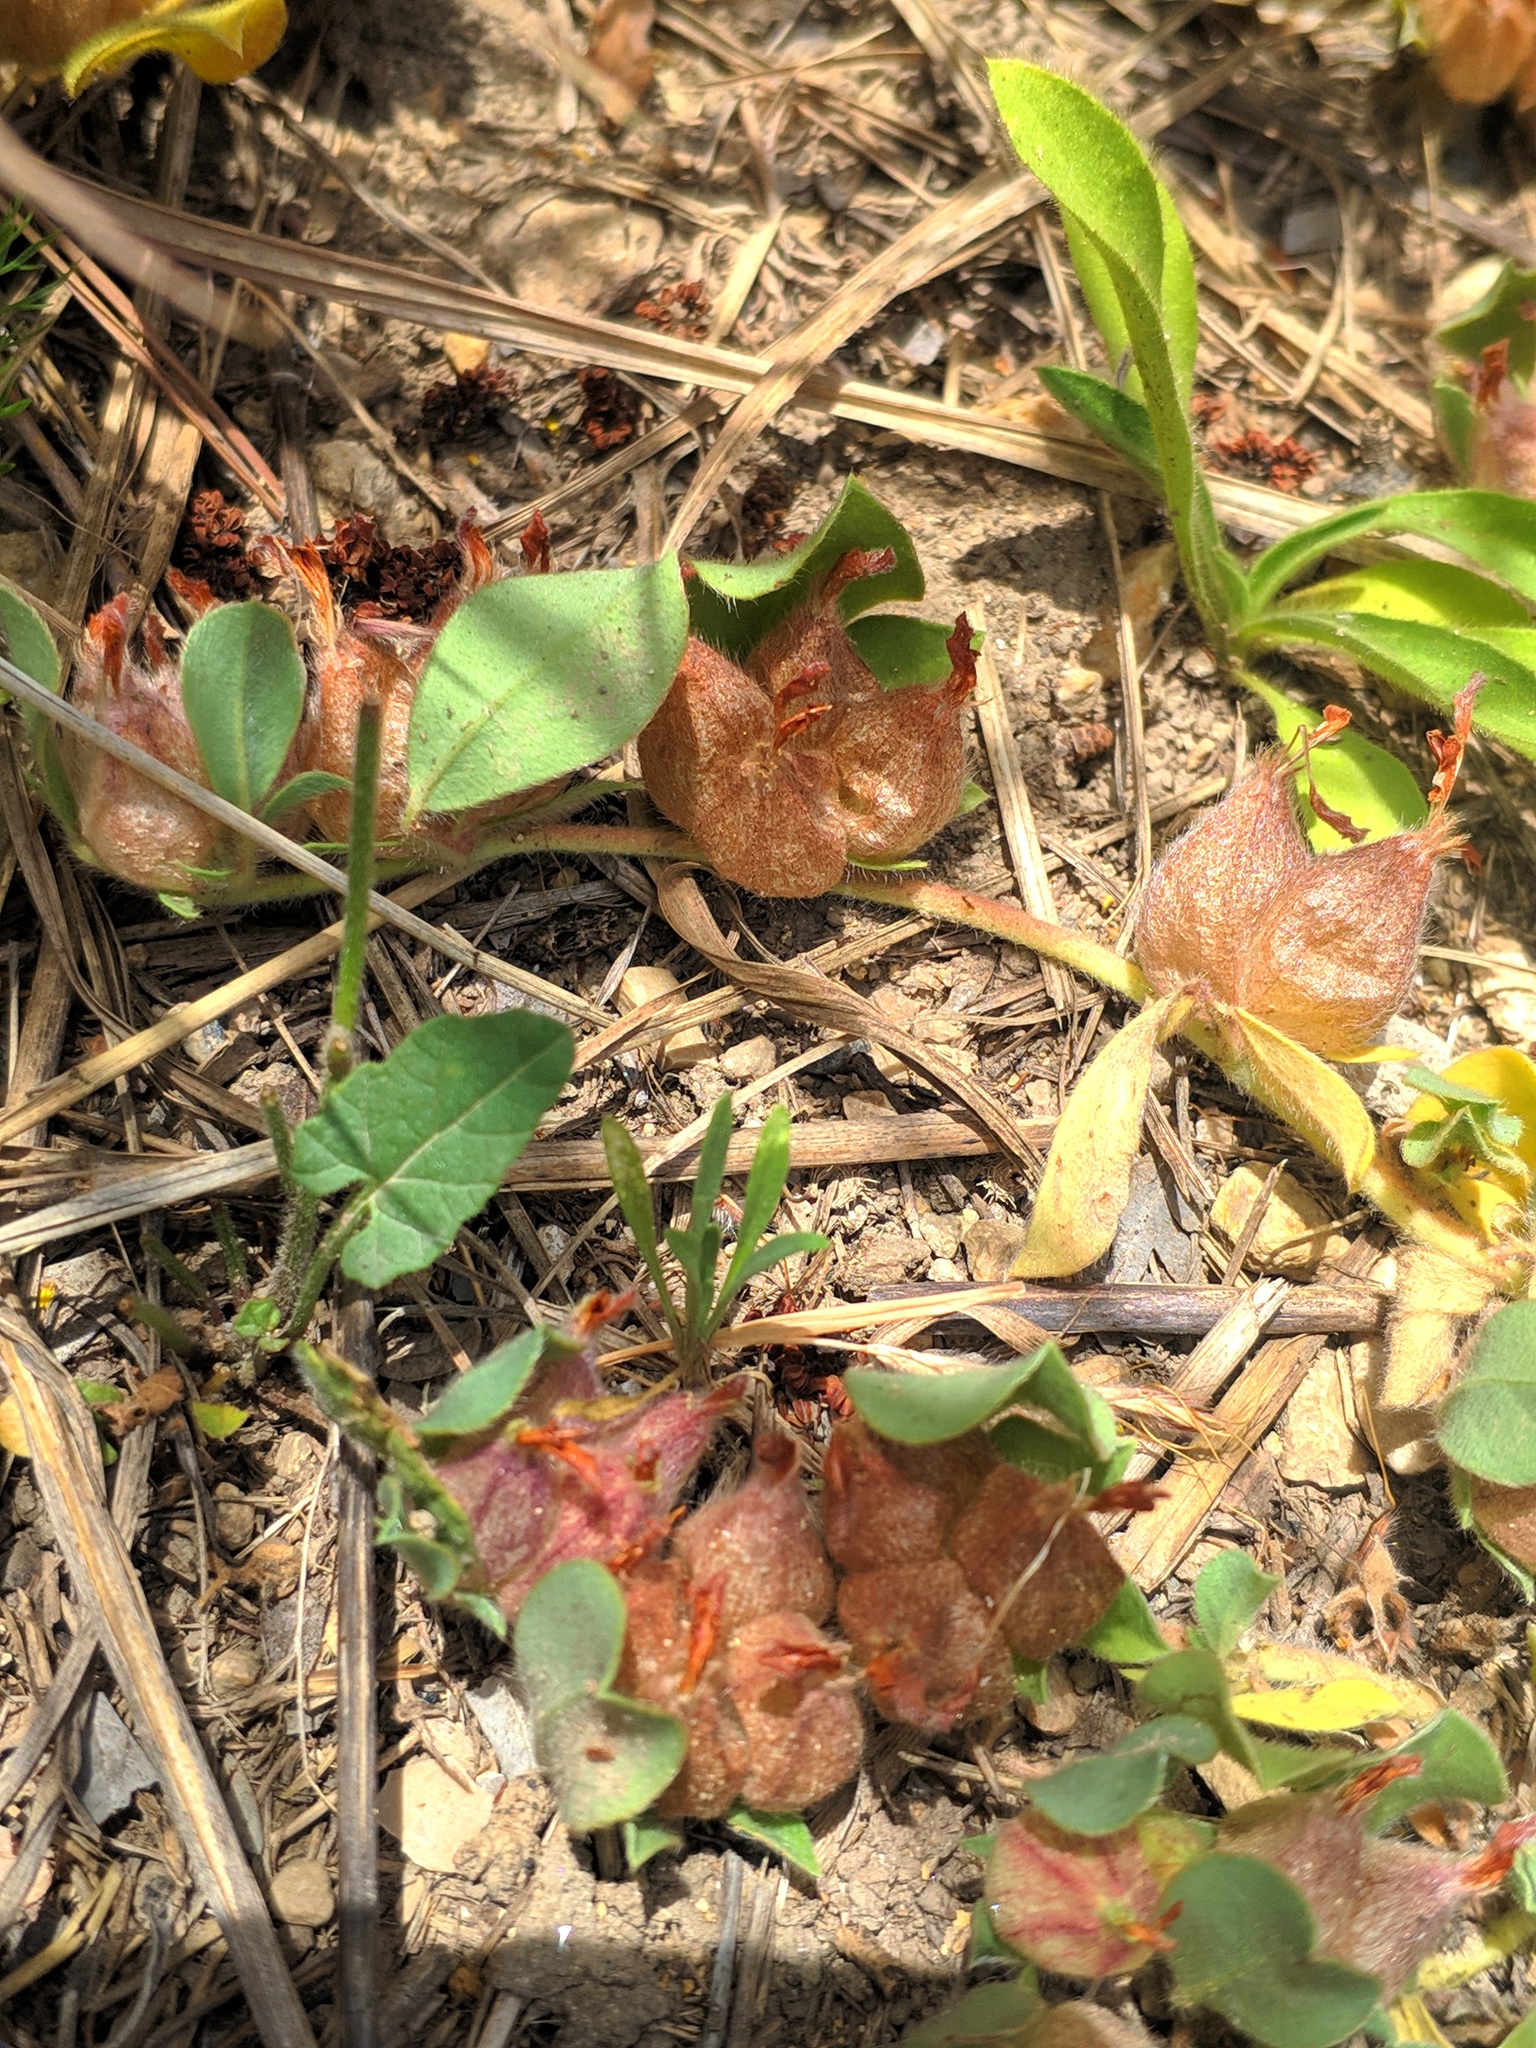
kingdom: Plantae
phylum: Tracheophyta
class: Magnoliopsida
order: Fabales
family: Fabaceae
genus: Tripodion
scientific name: Tripodion tetraphyllum
